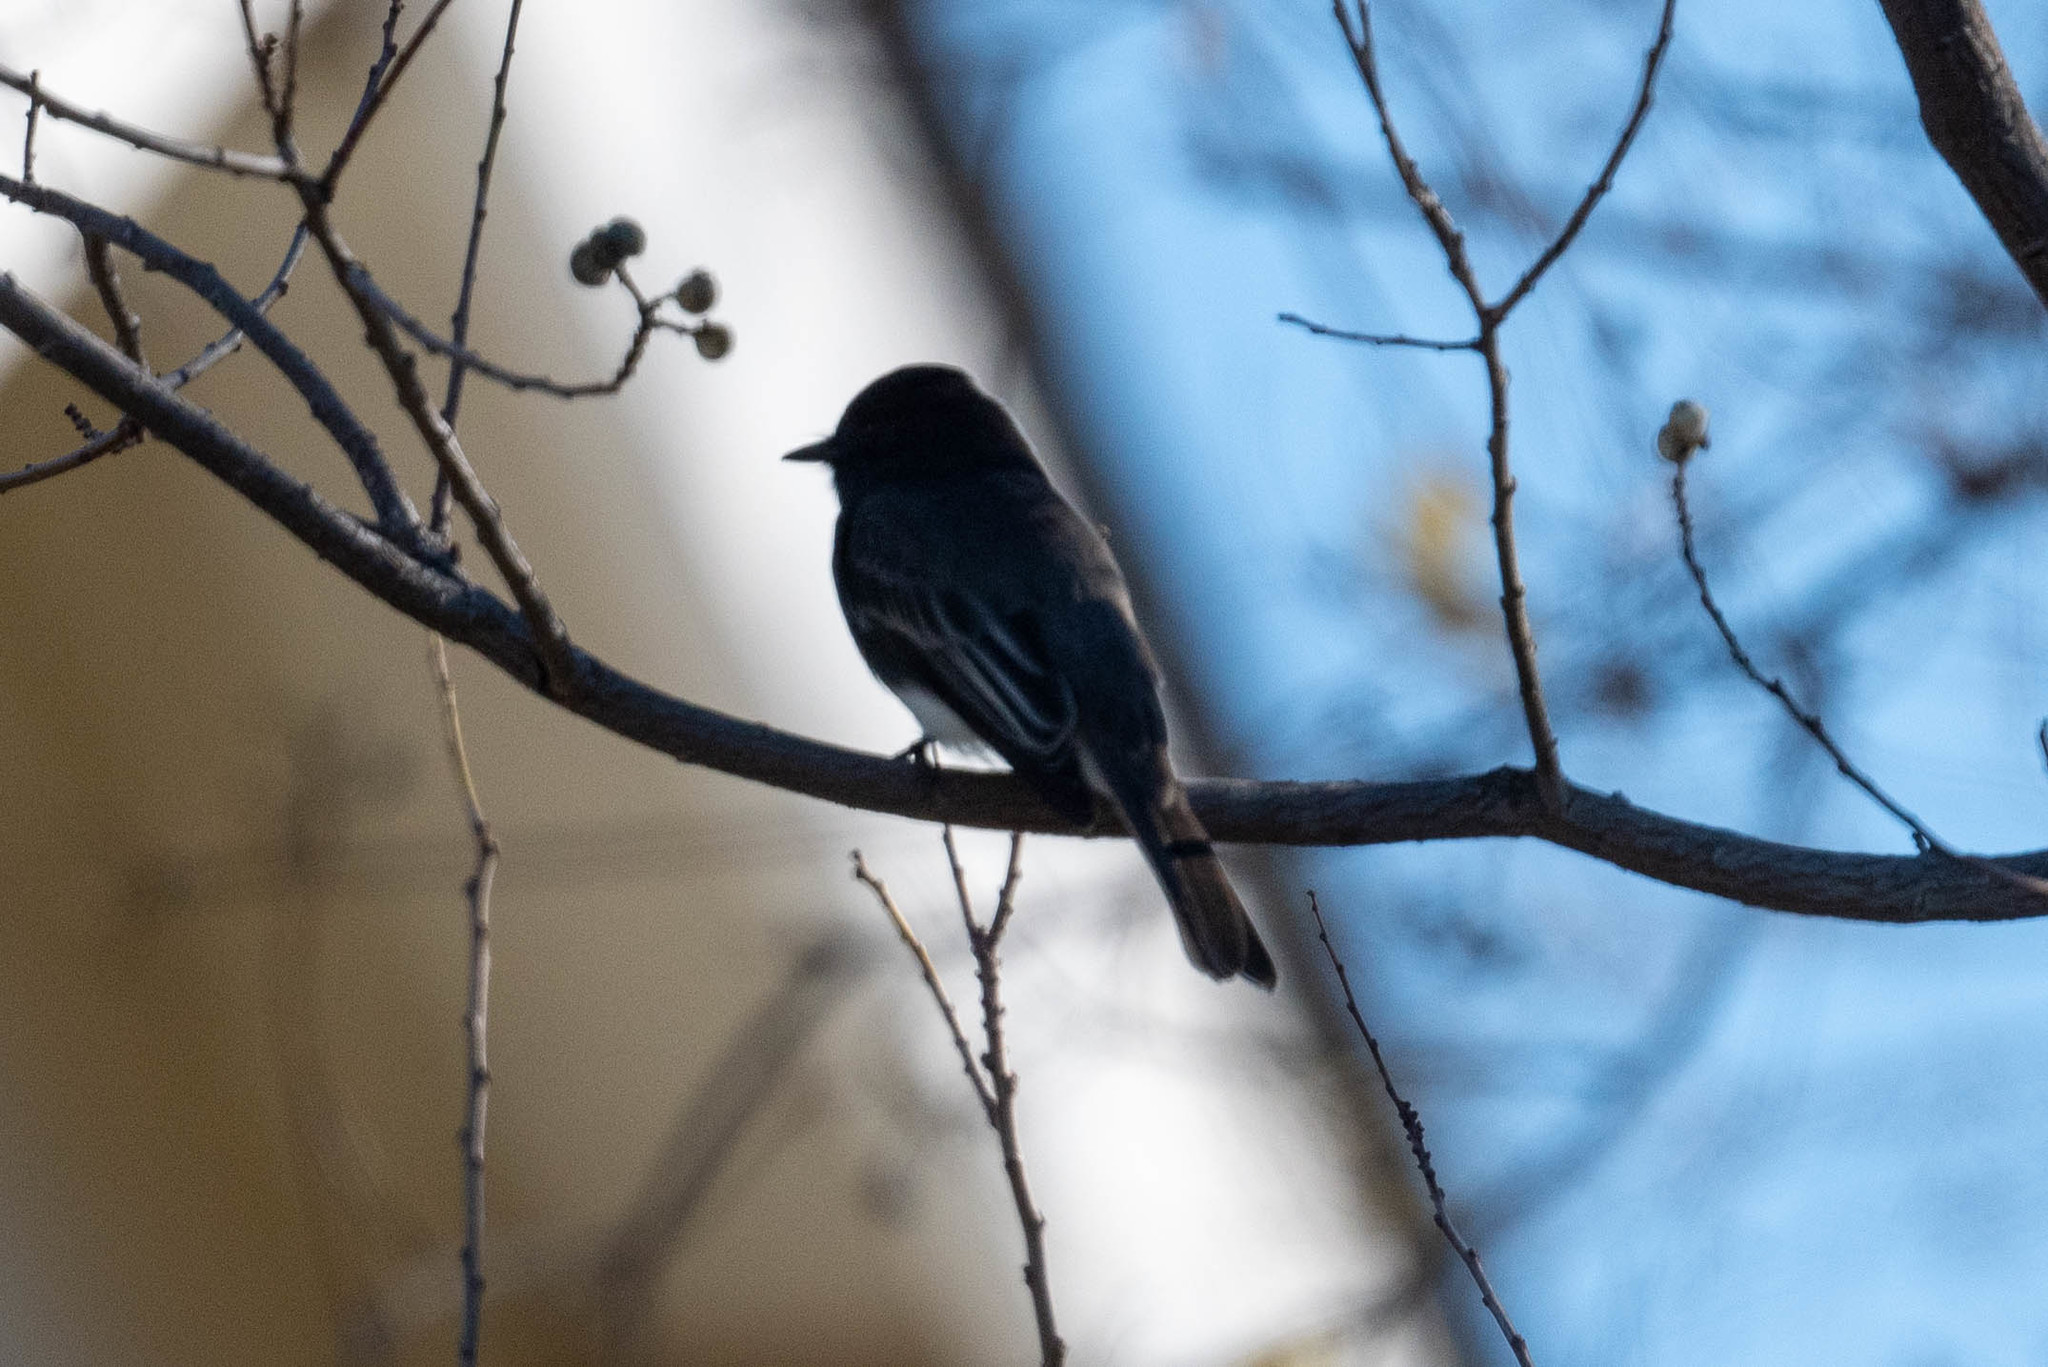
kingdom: Animalia
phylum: Chordata
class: Aves
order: Passeriformes
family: Tyrannidae
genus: Sayornis
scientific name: Sayornis nigricans
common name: Black phoebe
